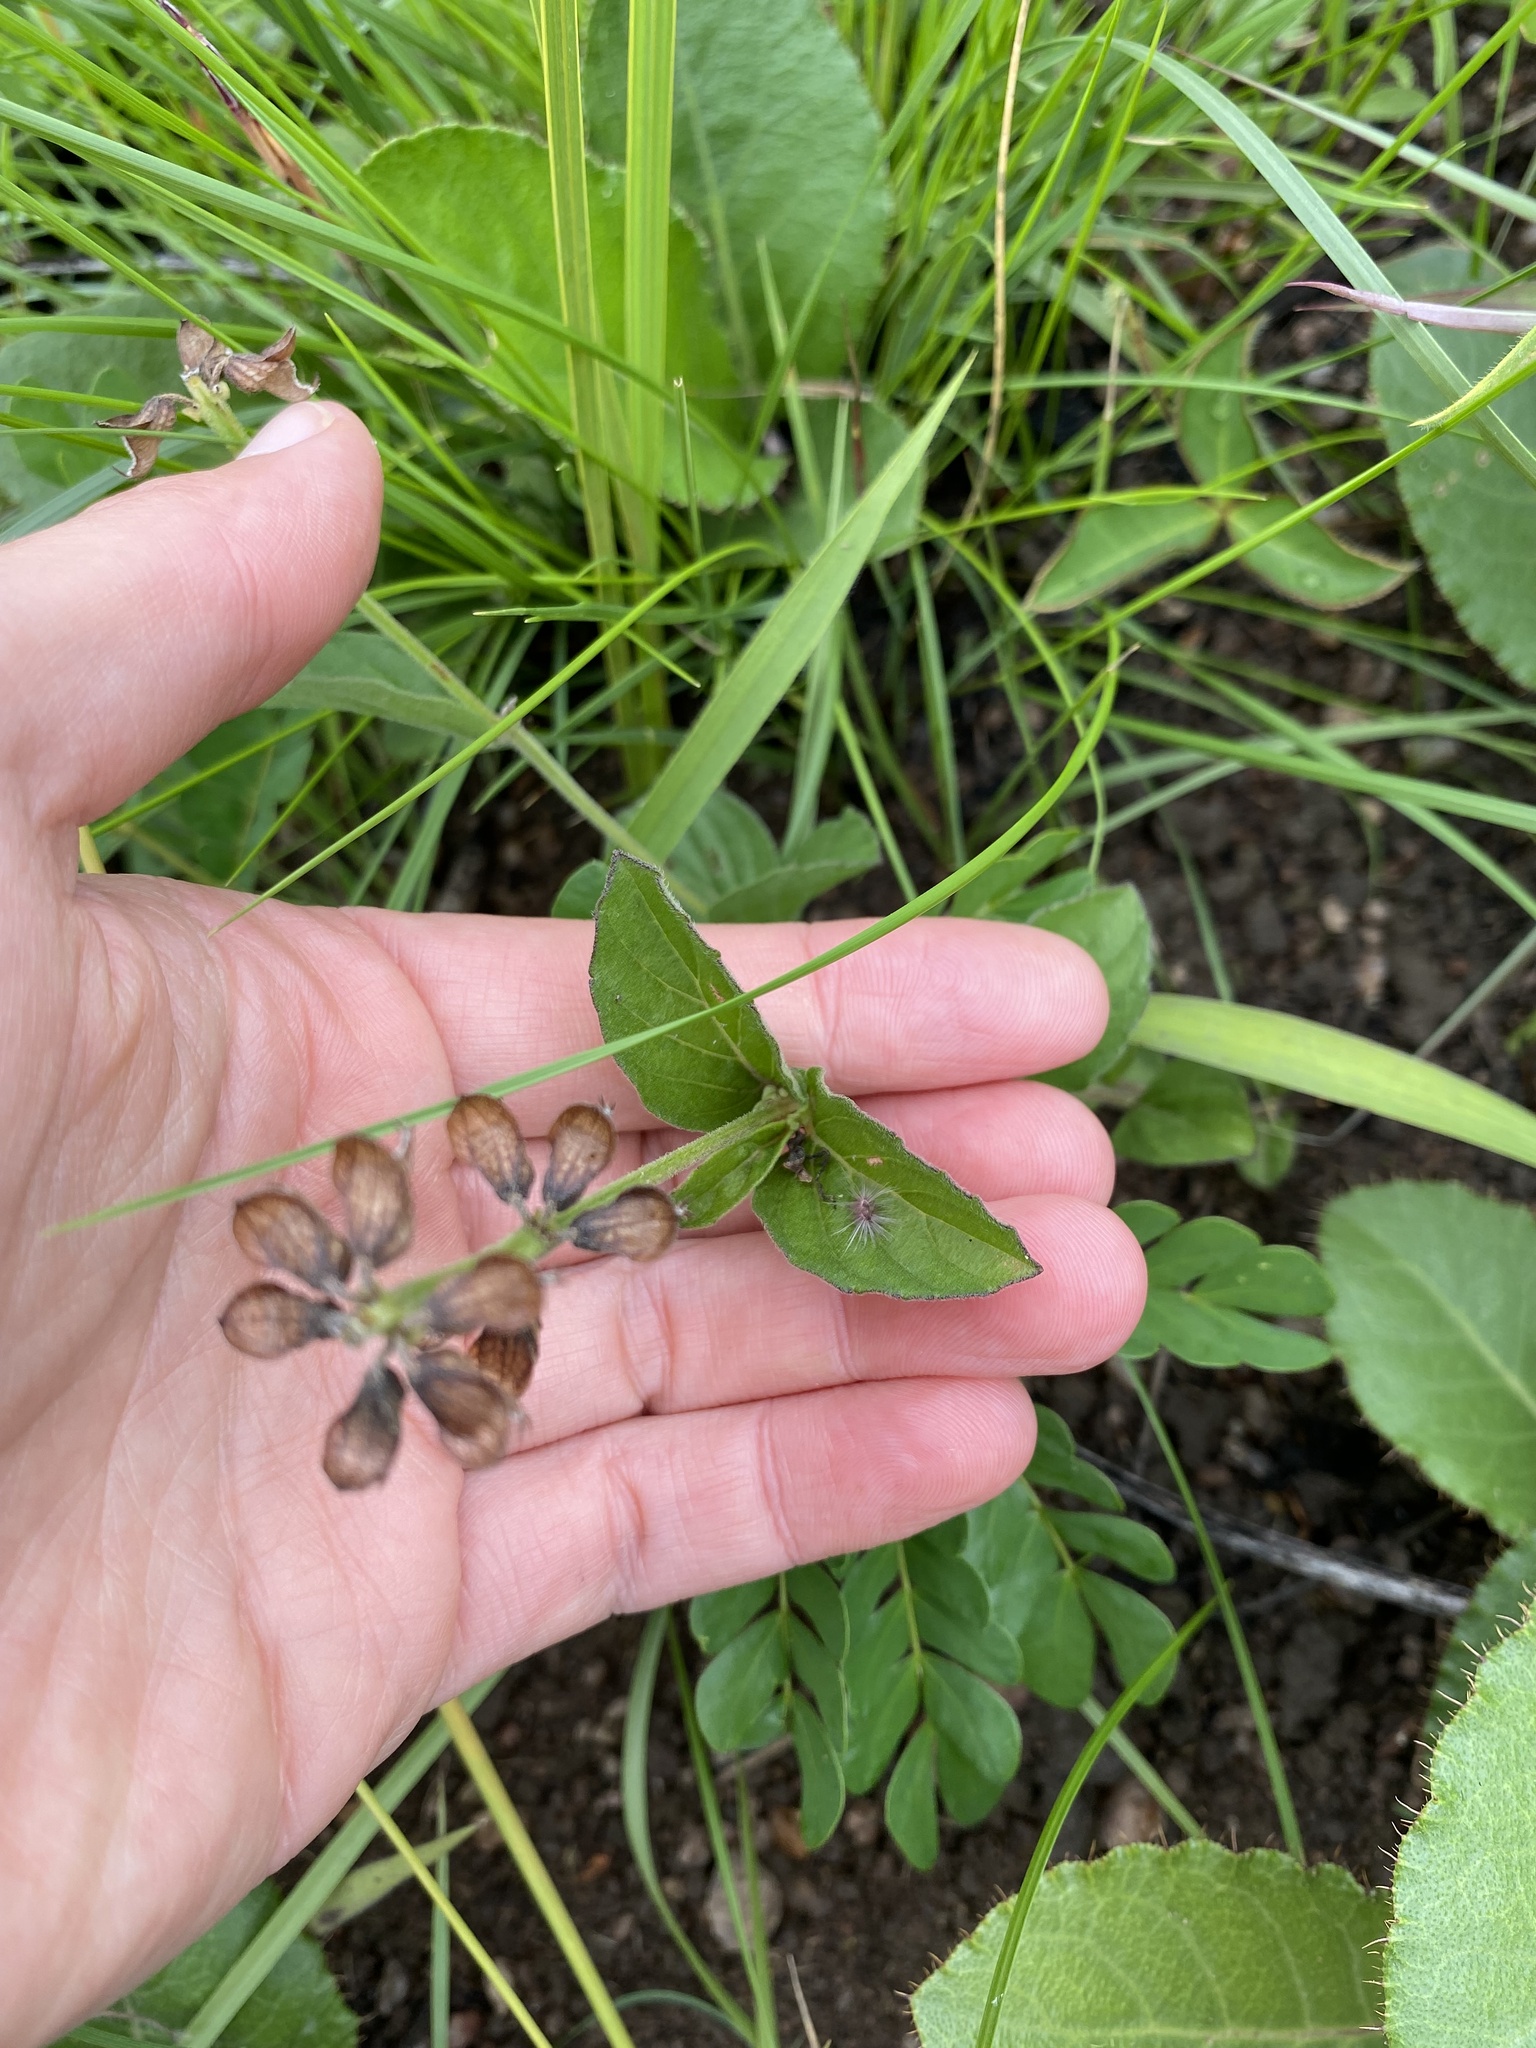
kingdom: Plantae
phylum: Tracheophyta
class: Magnoliopsida
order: Lamiales
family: Lamiaceae
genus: Ocimum
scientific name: Ocimum obovatum
